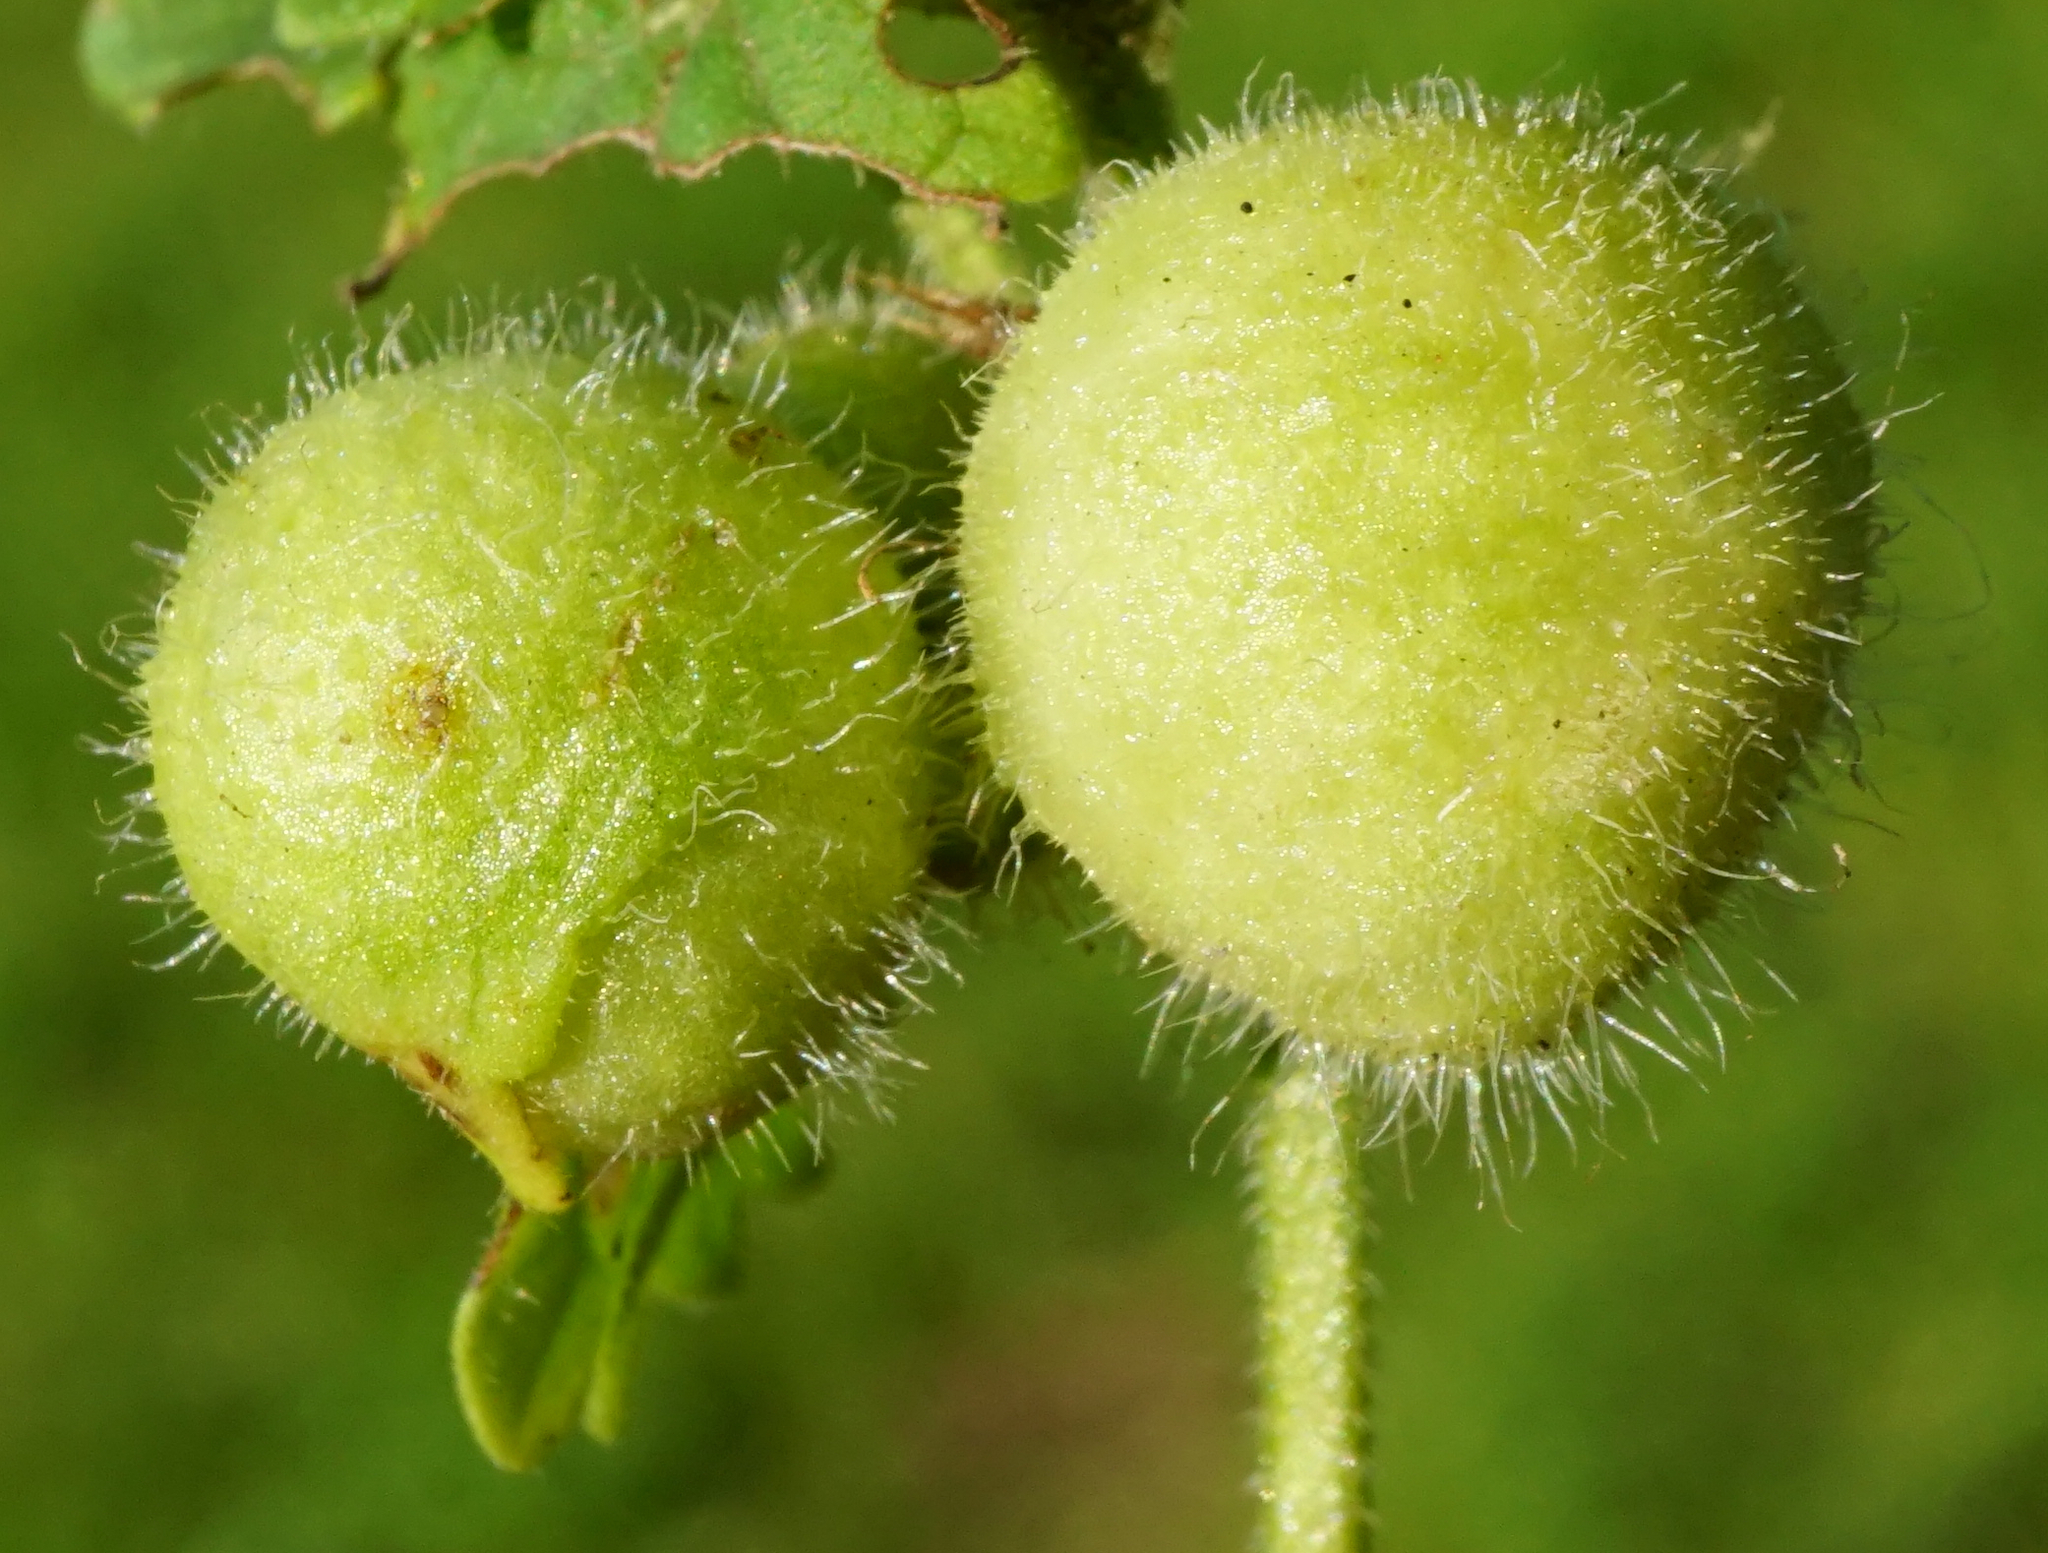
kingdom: Animalia
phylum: Arthropoda
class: Insecta
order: Hymenoptera
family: Cynipidae
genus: Liposthenes
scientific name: Liposthenes glechomae
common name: Gall wasp
